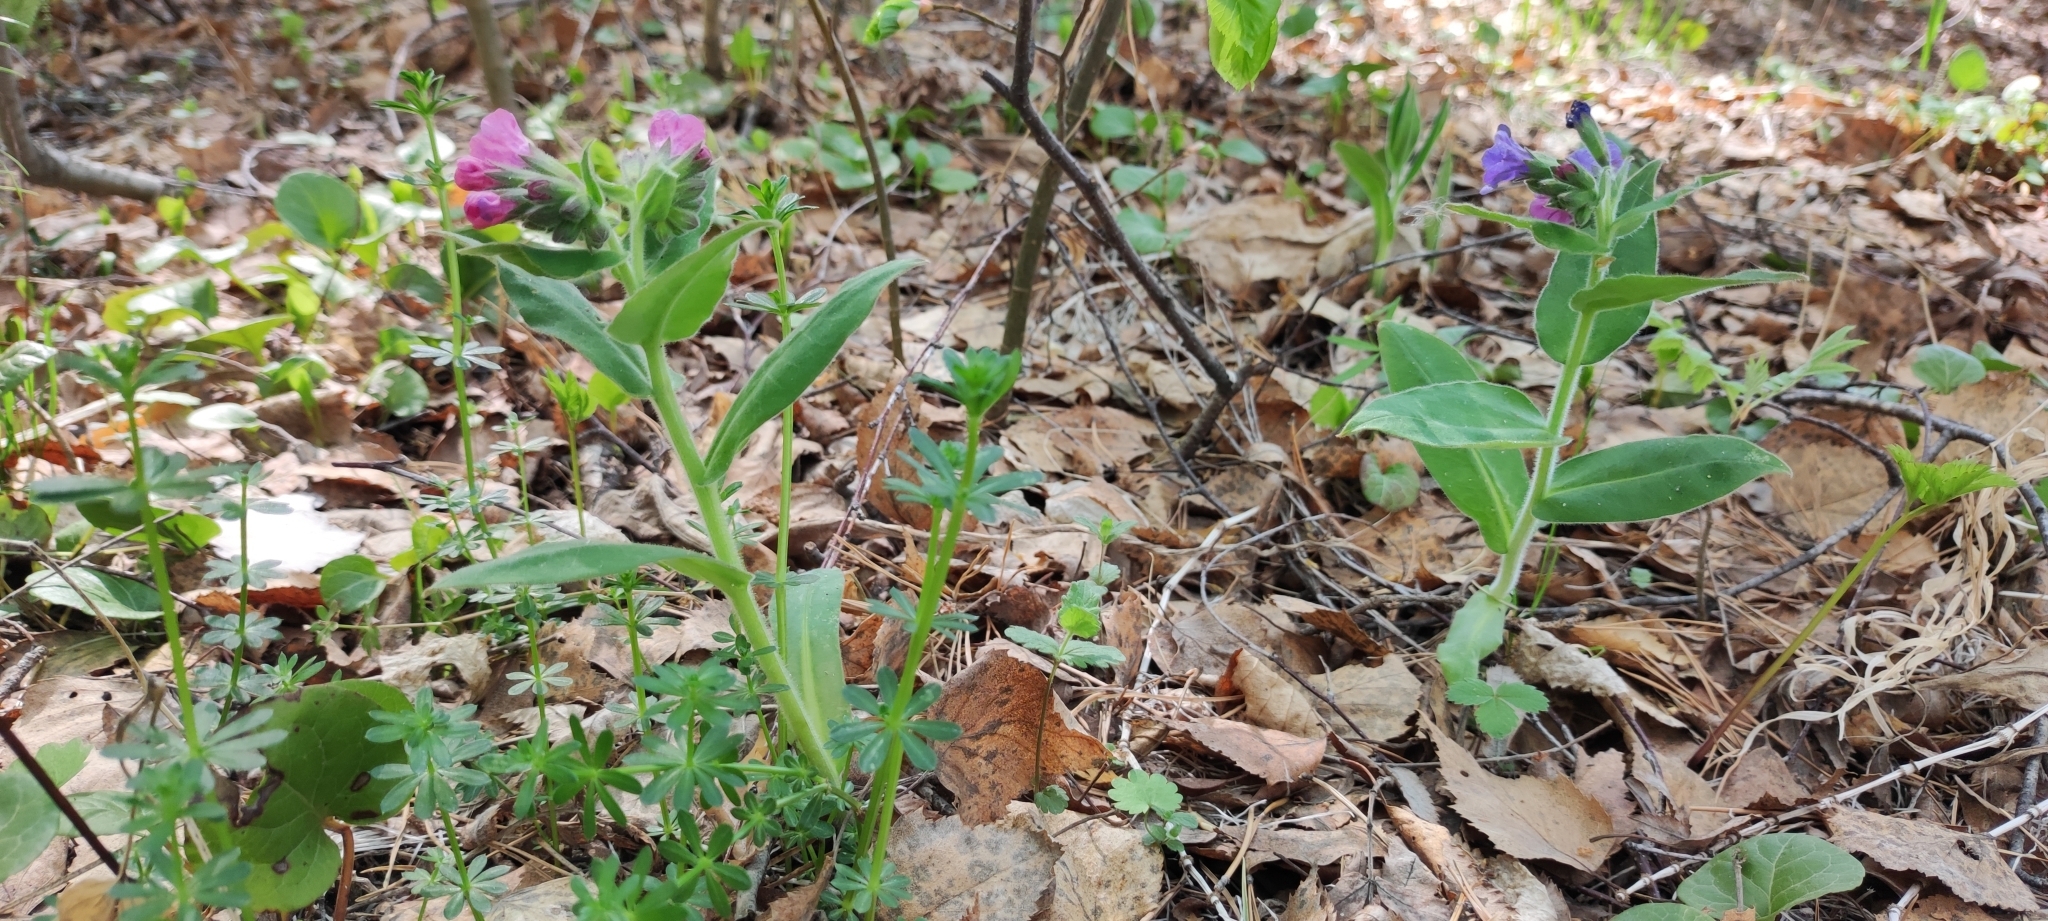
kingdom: Plantae
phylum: Tracheophyta
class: Magnoliopsida
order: Boraginales
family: Boraginaceae
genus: Pulmonaria
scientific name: Pulmonaria mollis
